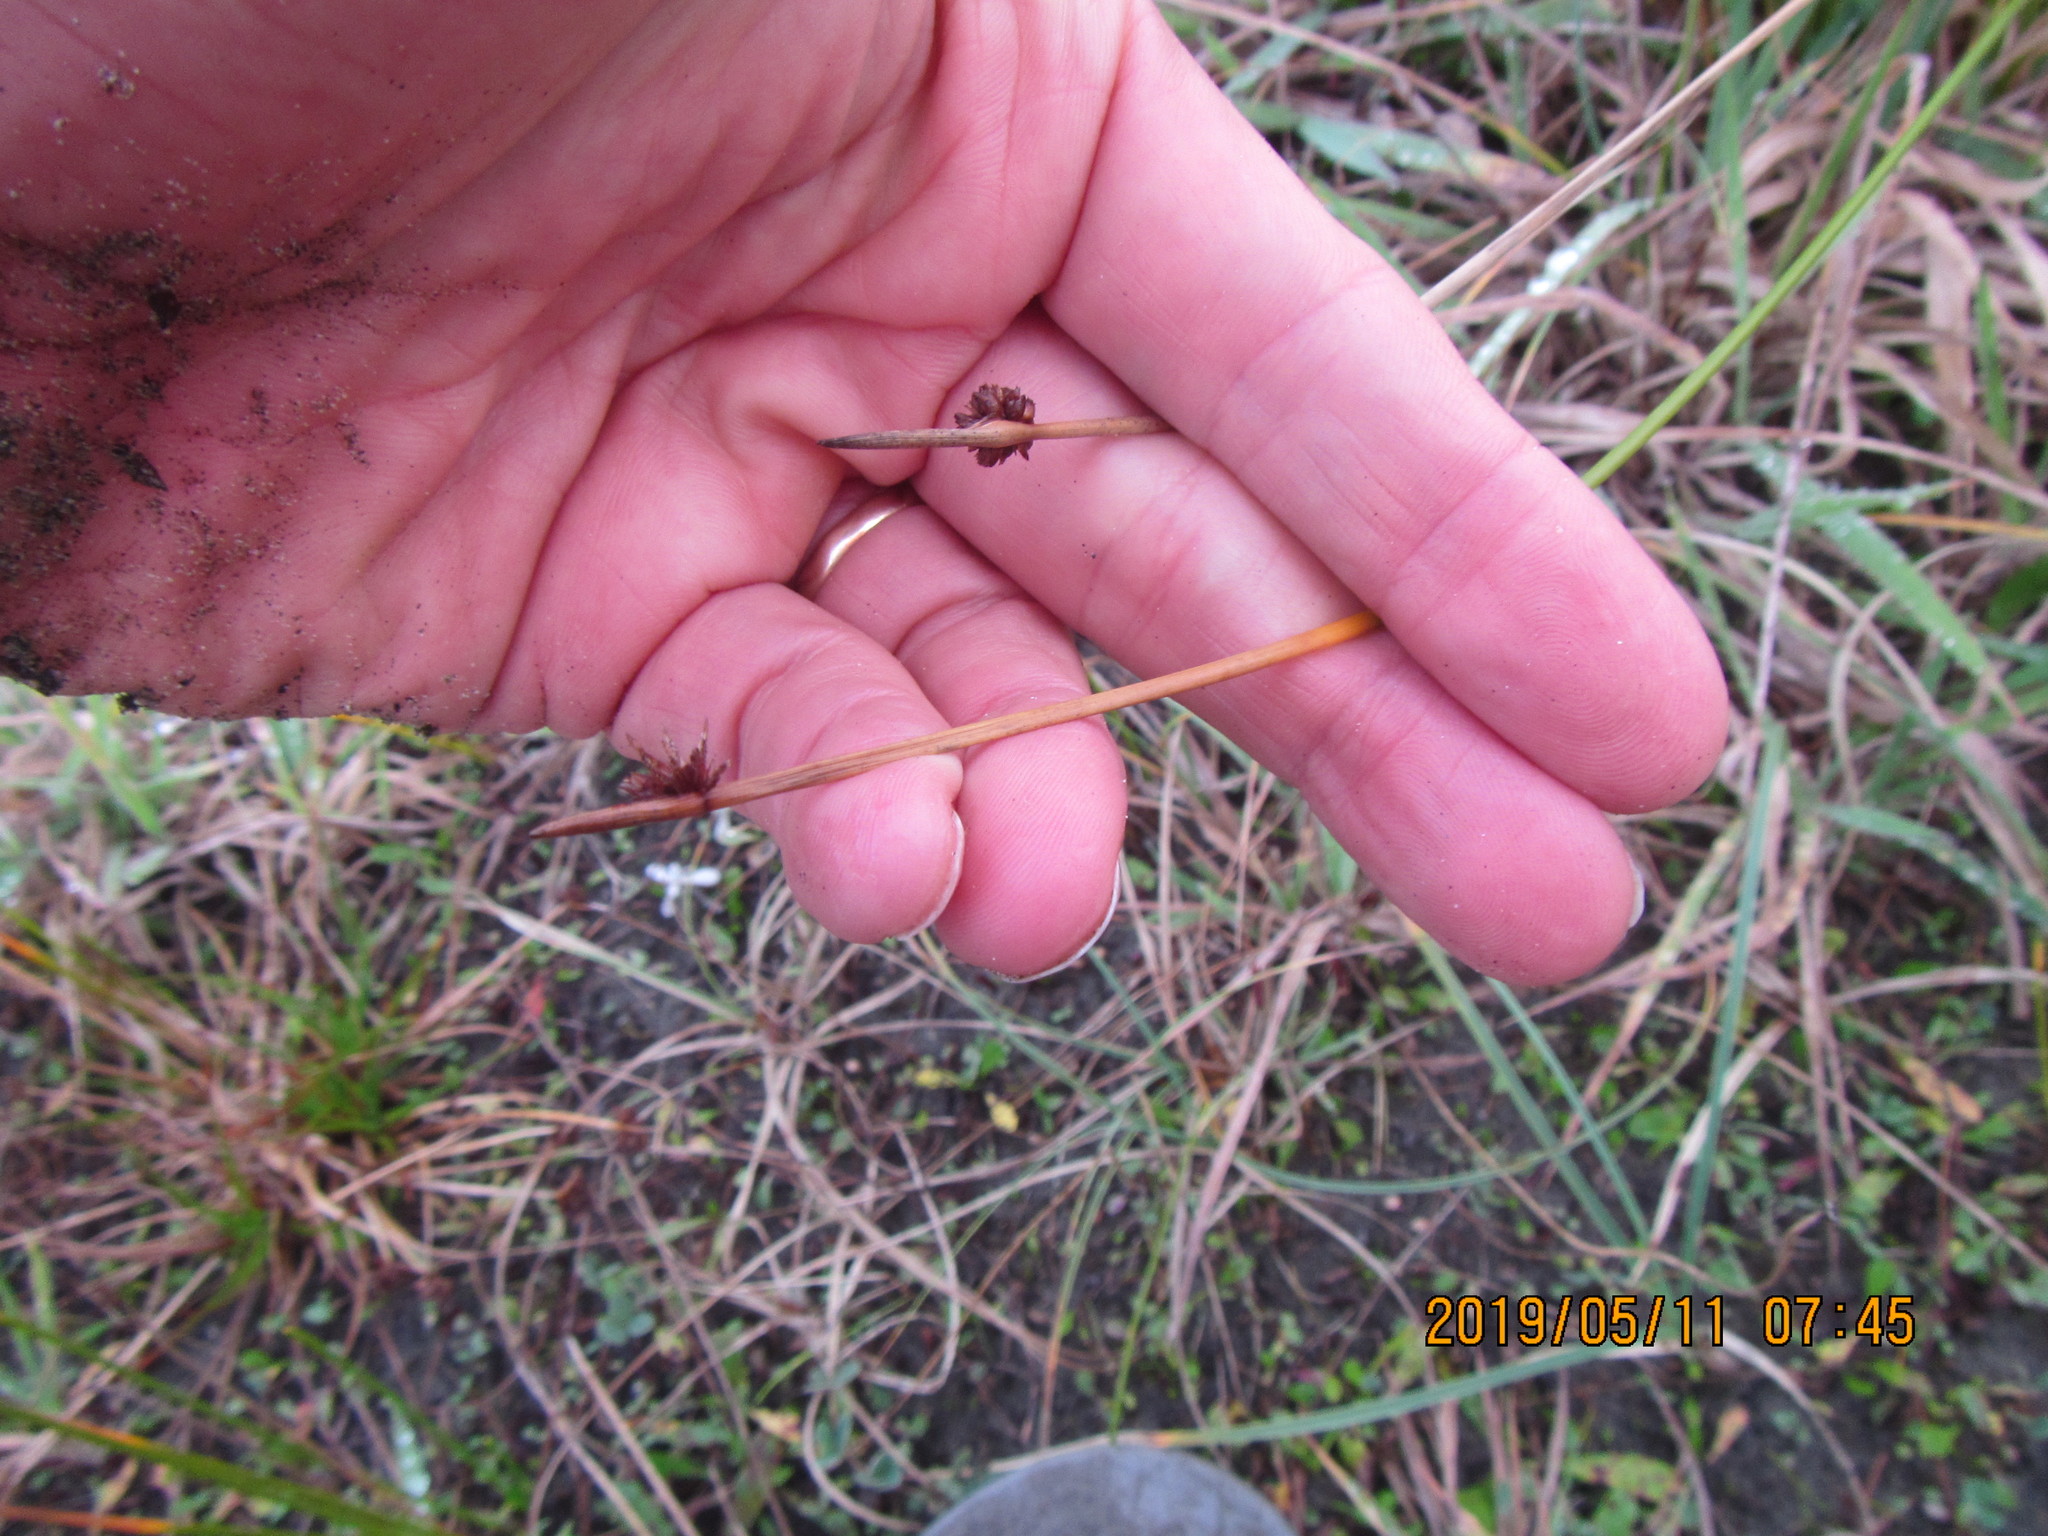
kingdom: Plantae
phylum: Tracheophyta
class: Liliopsida
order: Poales
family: Cyperaceae
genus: Ficinia
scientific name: Ficinia nodosa
